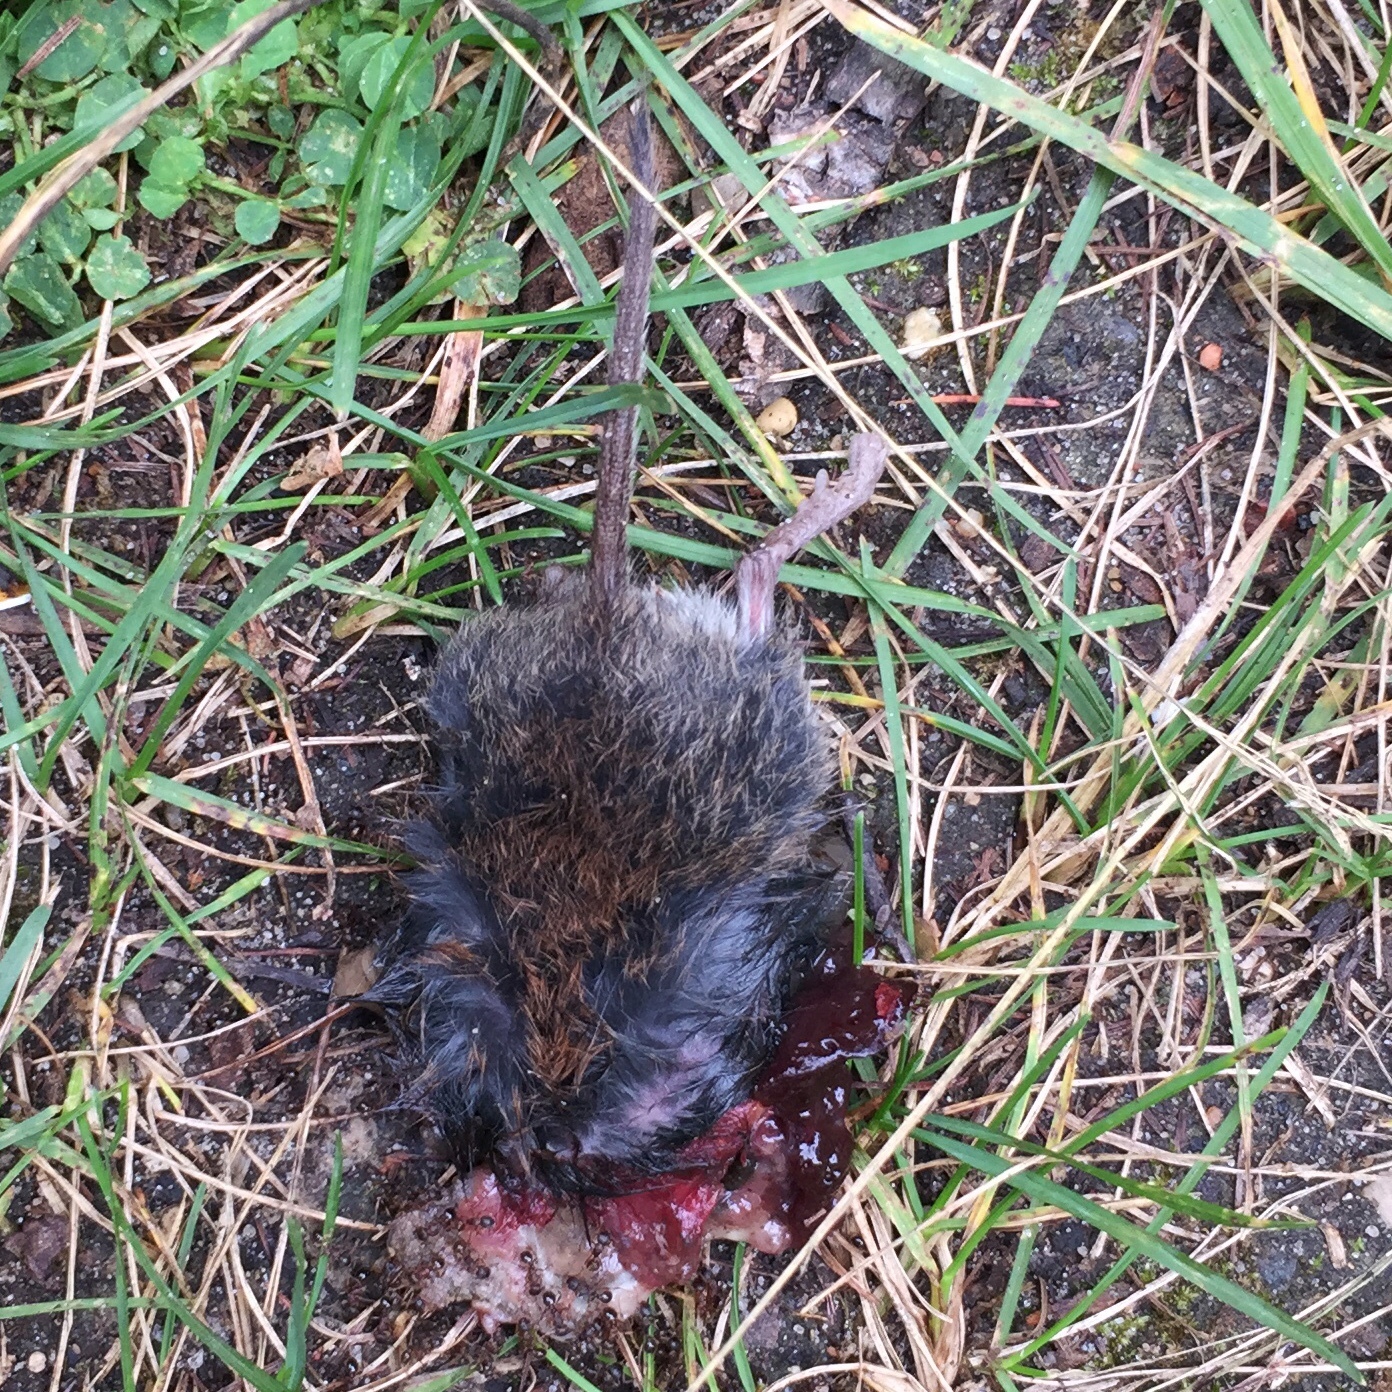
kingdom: Animalia
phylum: Chordata
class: Mammalia
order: Rodentia
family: Cricetidae
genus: Myodes
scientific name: Myodes gapperi
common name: Southern red-backed vole
